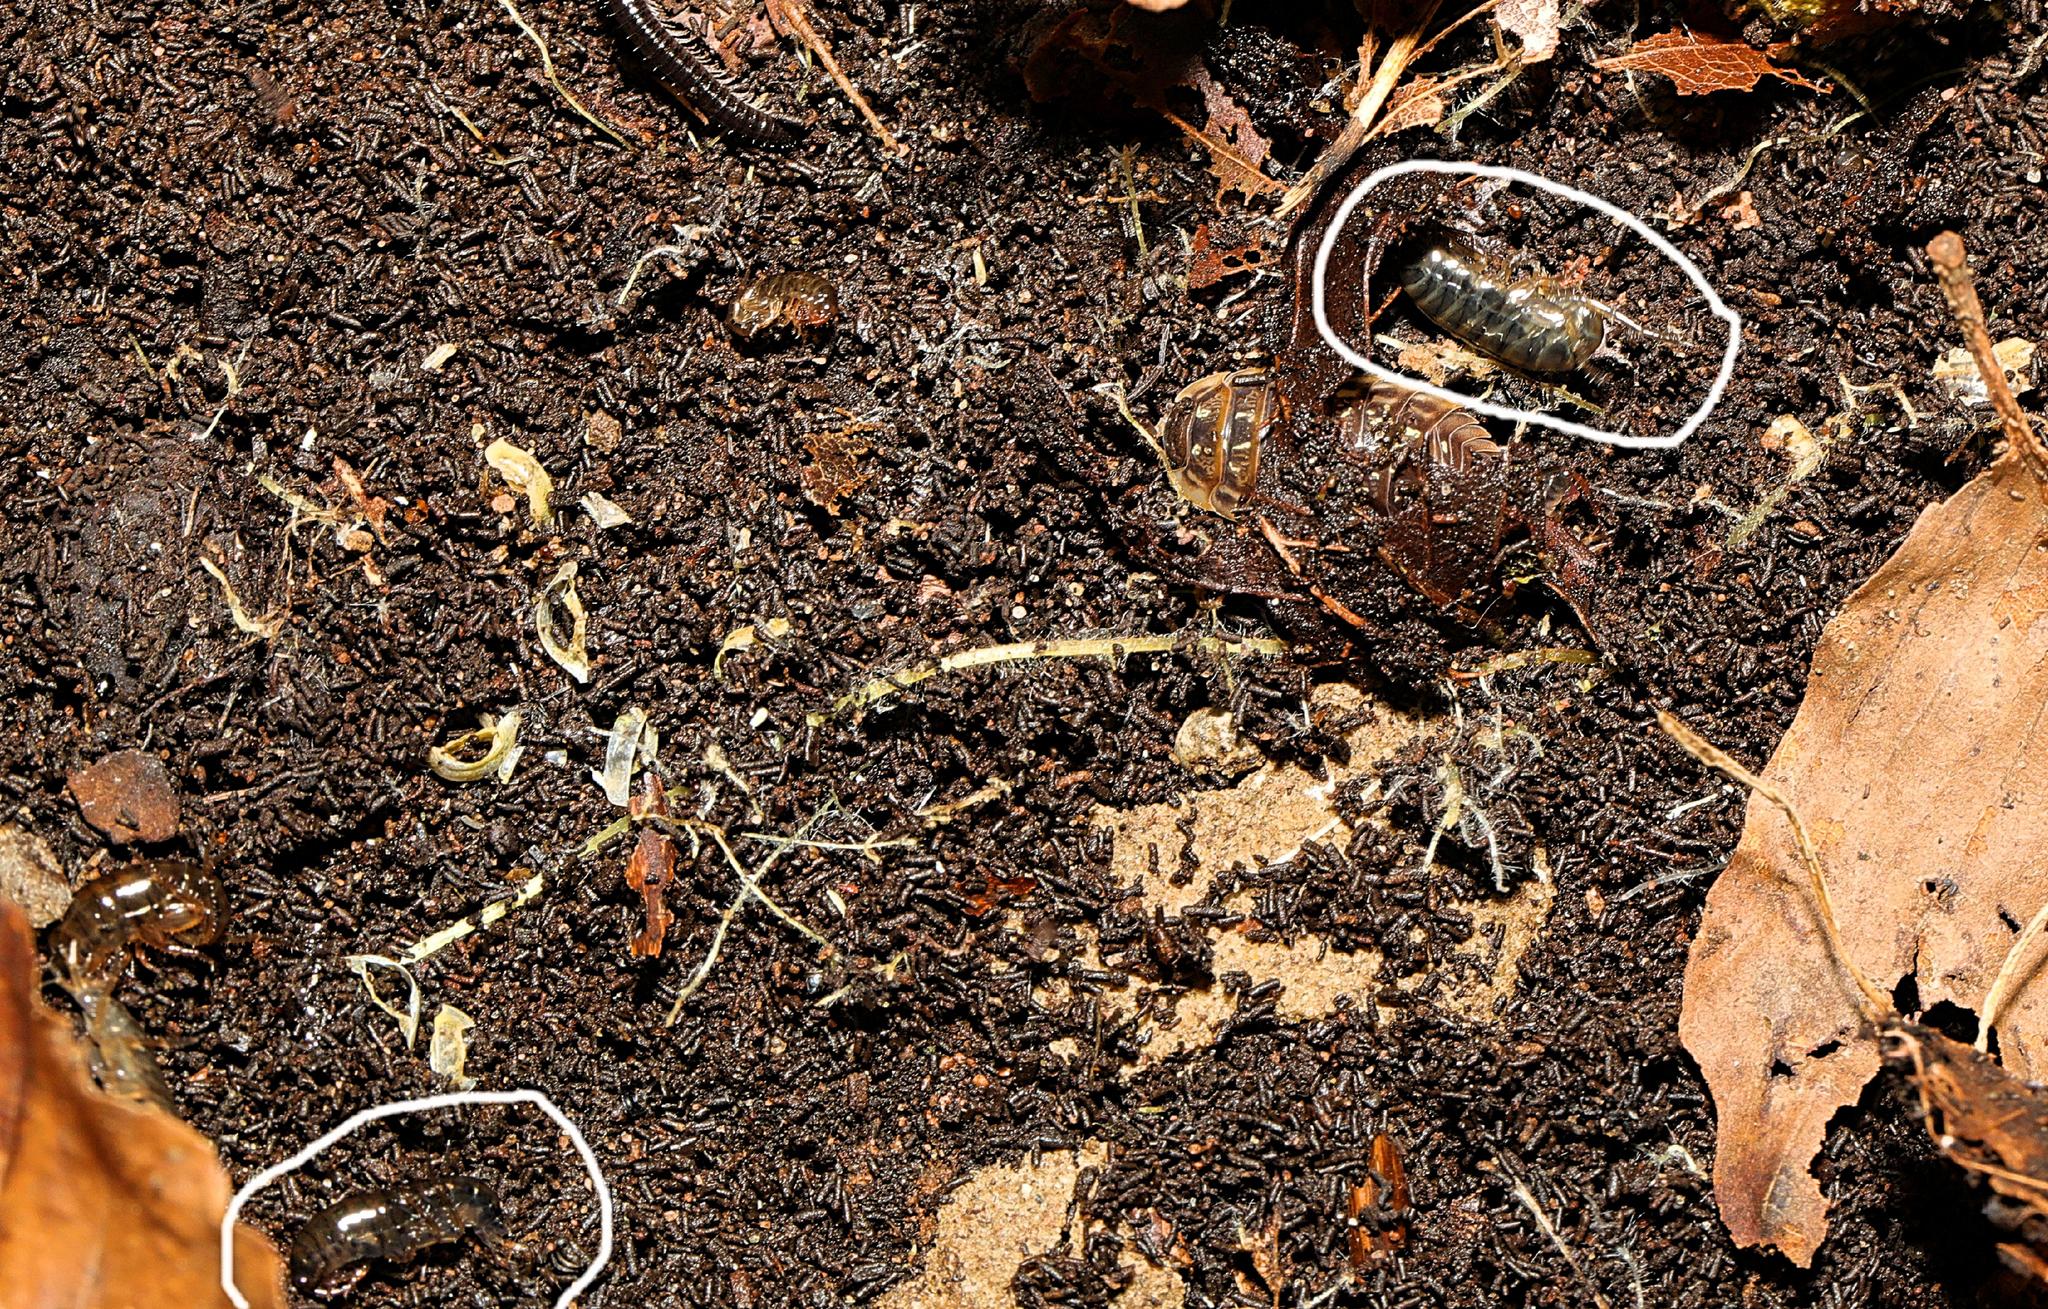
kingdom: Animalia
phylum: Arthropoda
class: Malacostraca
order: Amphipoda
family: Arcitalitridae
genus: Arcitalitrus
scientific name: Arcitalitrus dorrieni
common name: Landhopper
